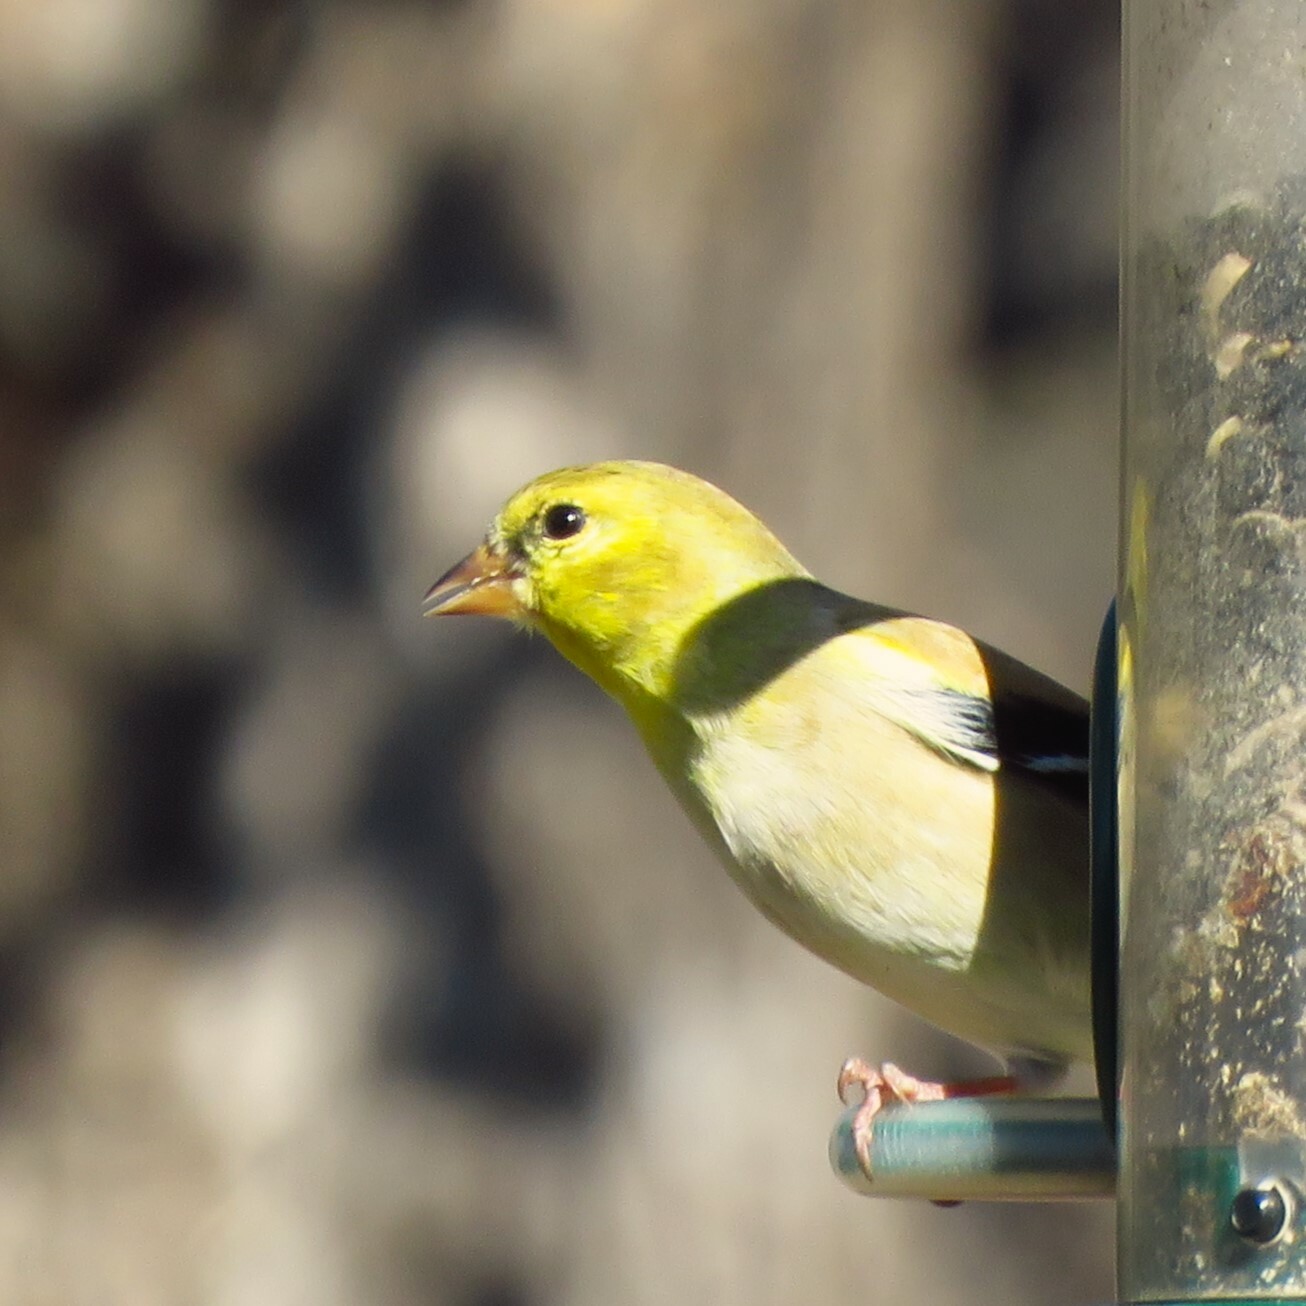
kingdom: Animalia
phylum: Chordata
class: Aves
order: Passeriformes
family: Fringillidae
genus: Spinus
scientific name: Spinus tristis
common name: American goldfinch
